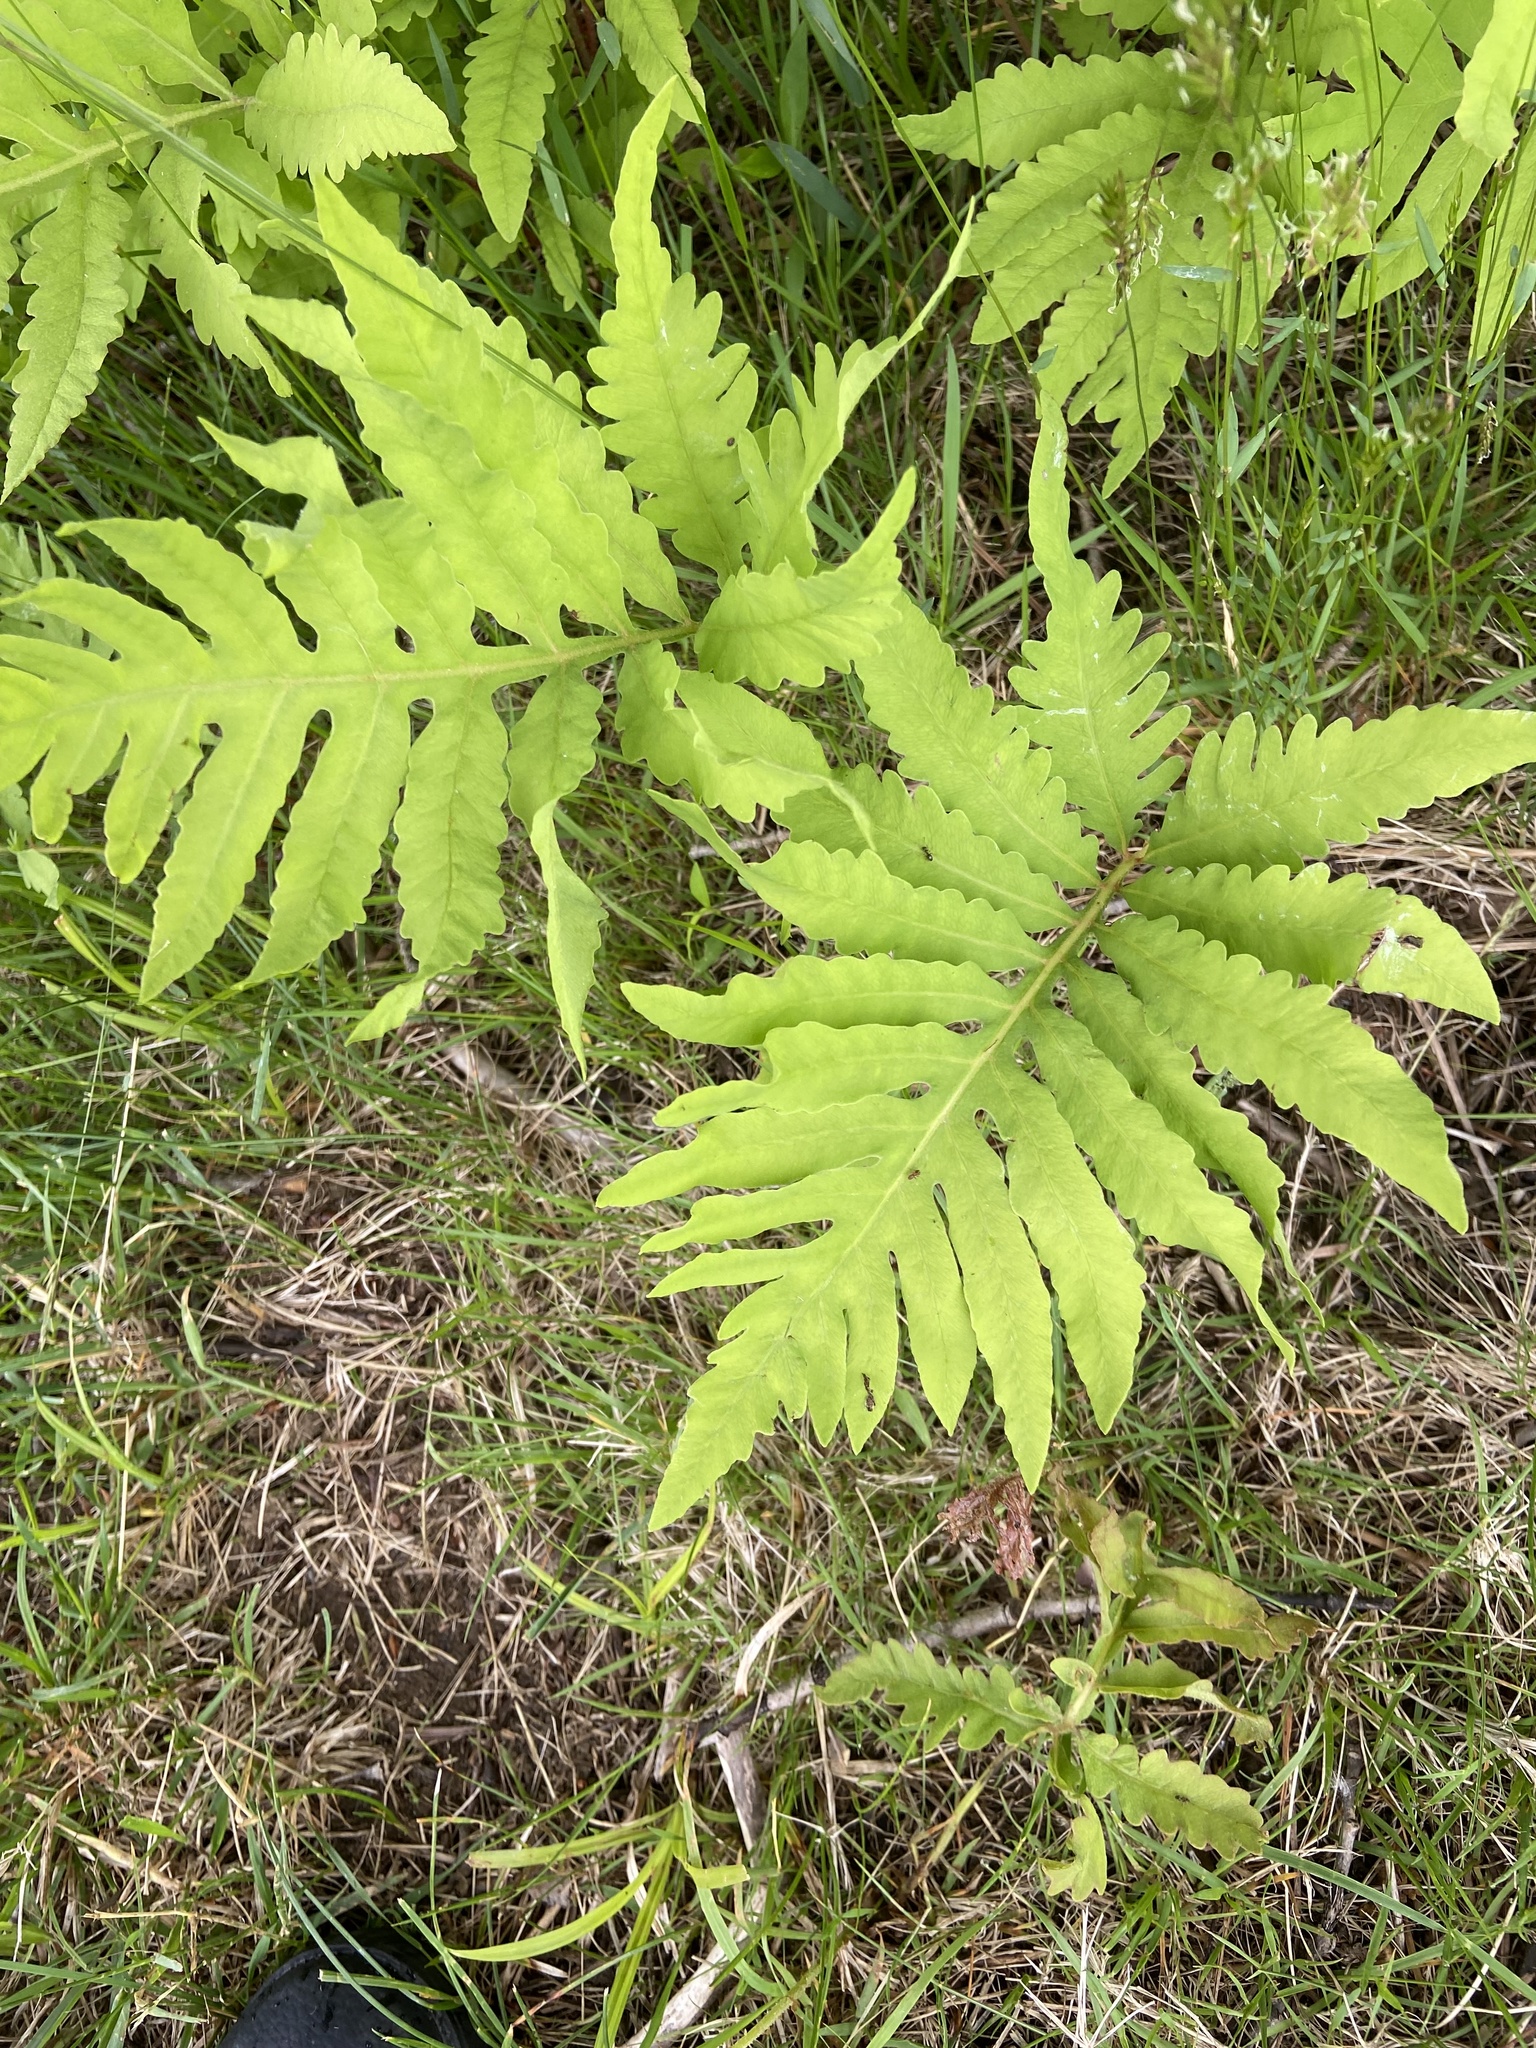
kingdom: Plantae
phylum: Tracheophyta
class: Polypodiopsida
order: Polypodiales
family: Onocleaceae
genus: Onoclea
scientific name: Onoclea sensibilis
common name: Sensitive fern
